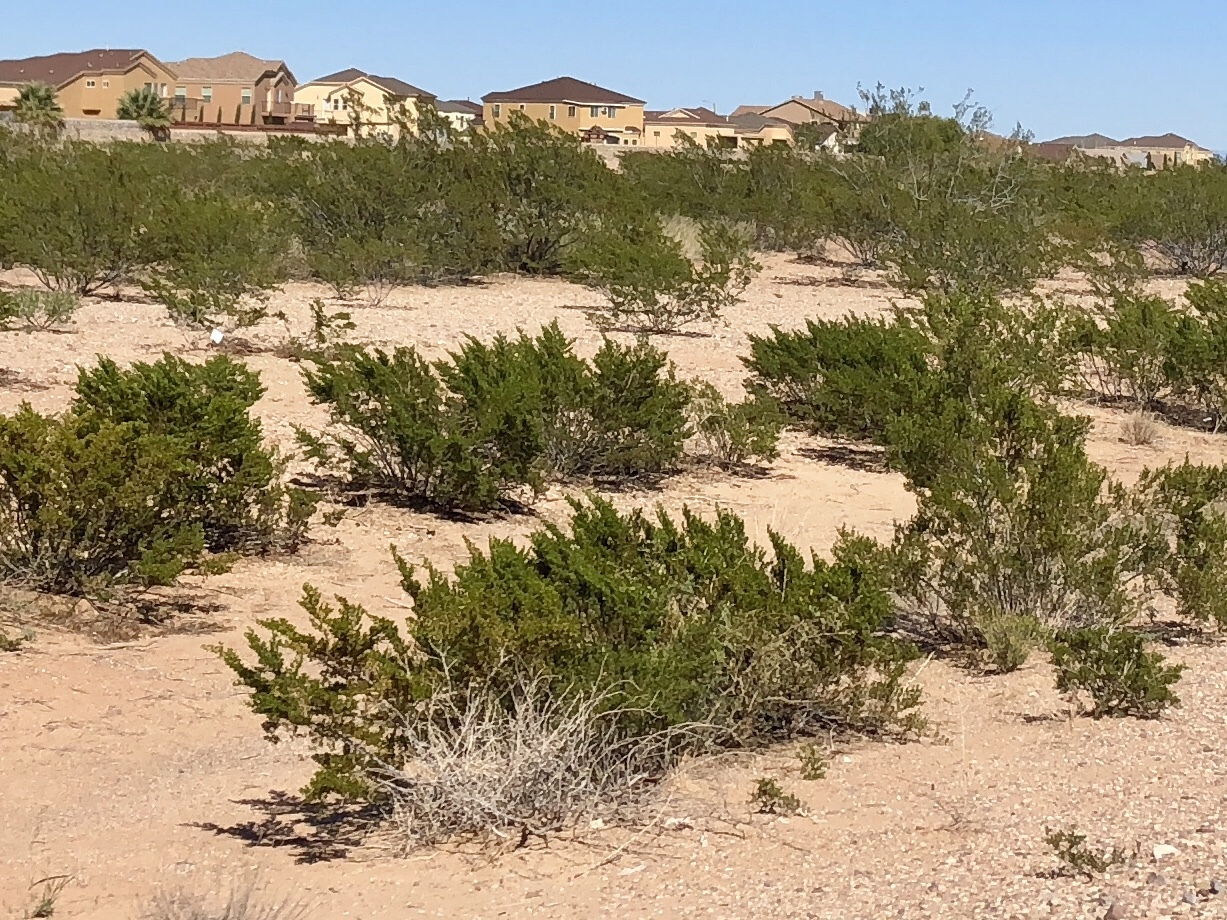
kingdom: Plantae
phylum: Tracheophyta
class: Magnoliopsida
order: Zygophyllales
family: Zygophyllaceae
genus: Larrea
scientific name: Larrea tridentata
